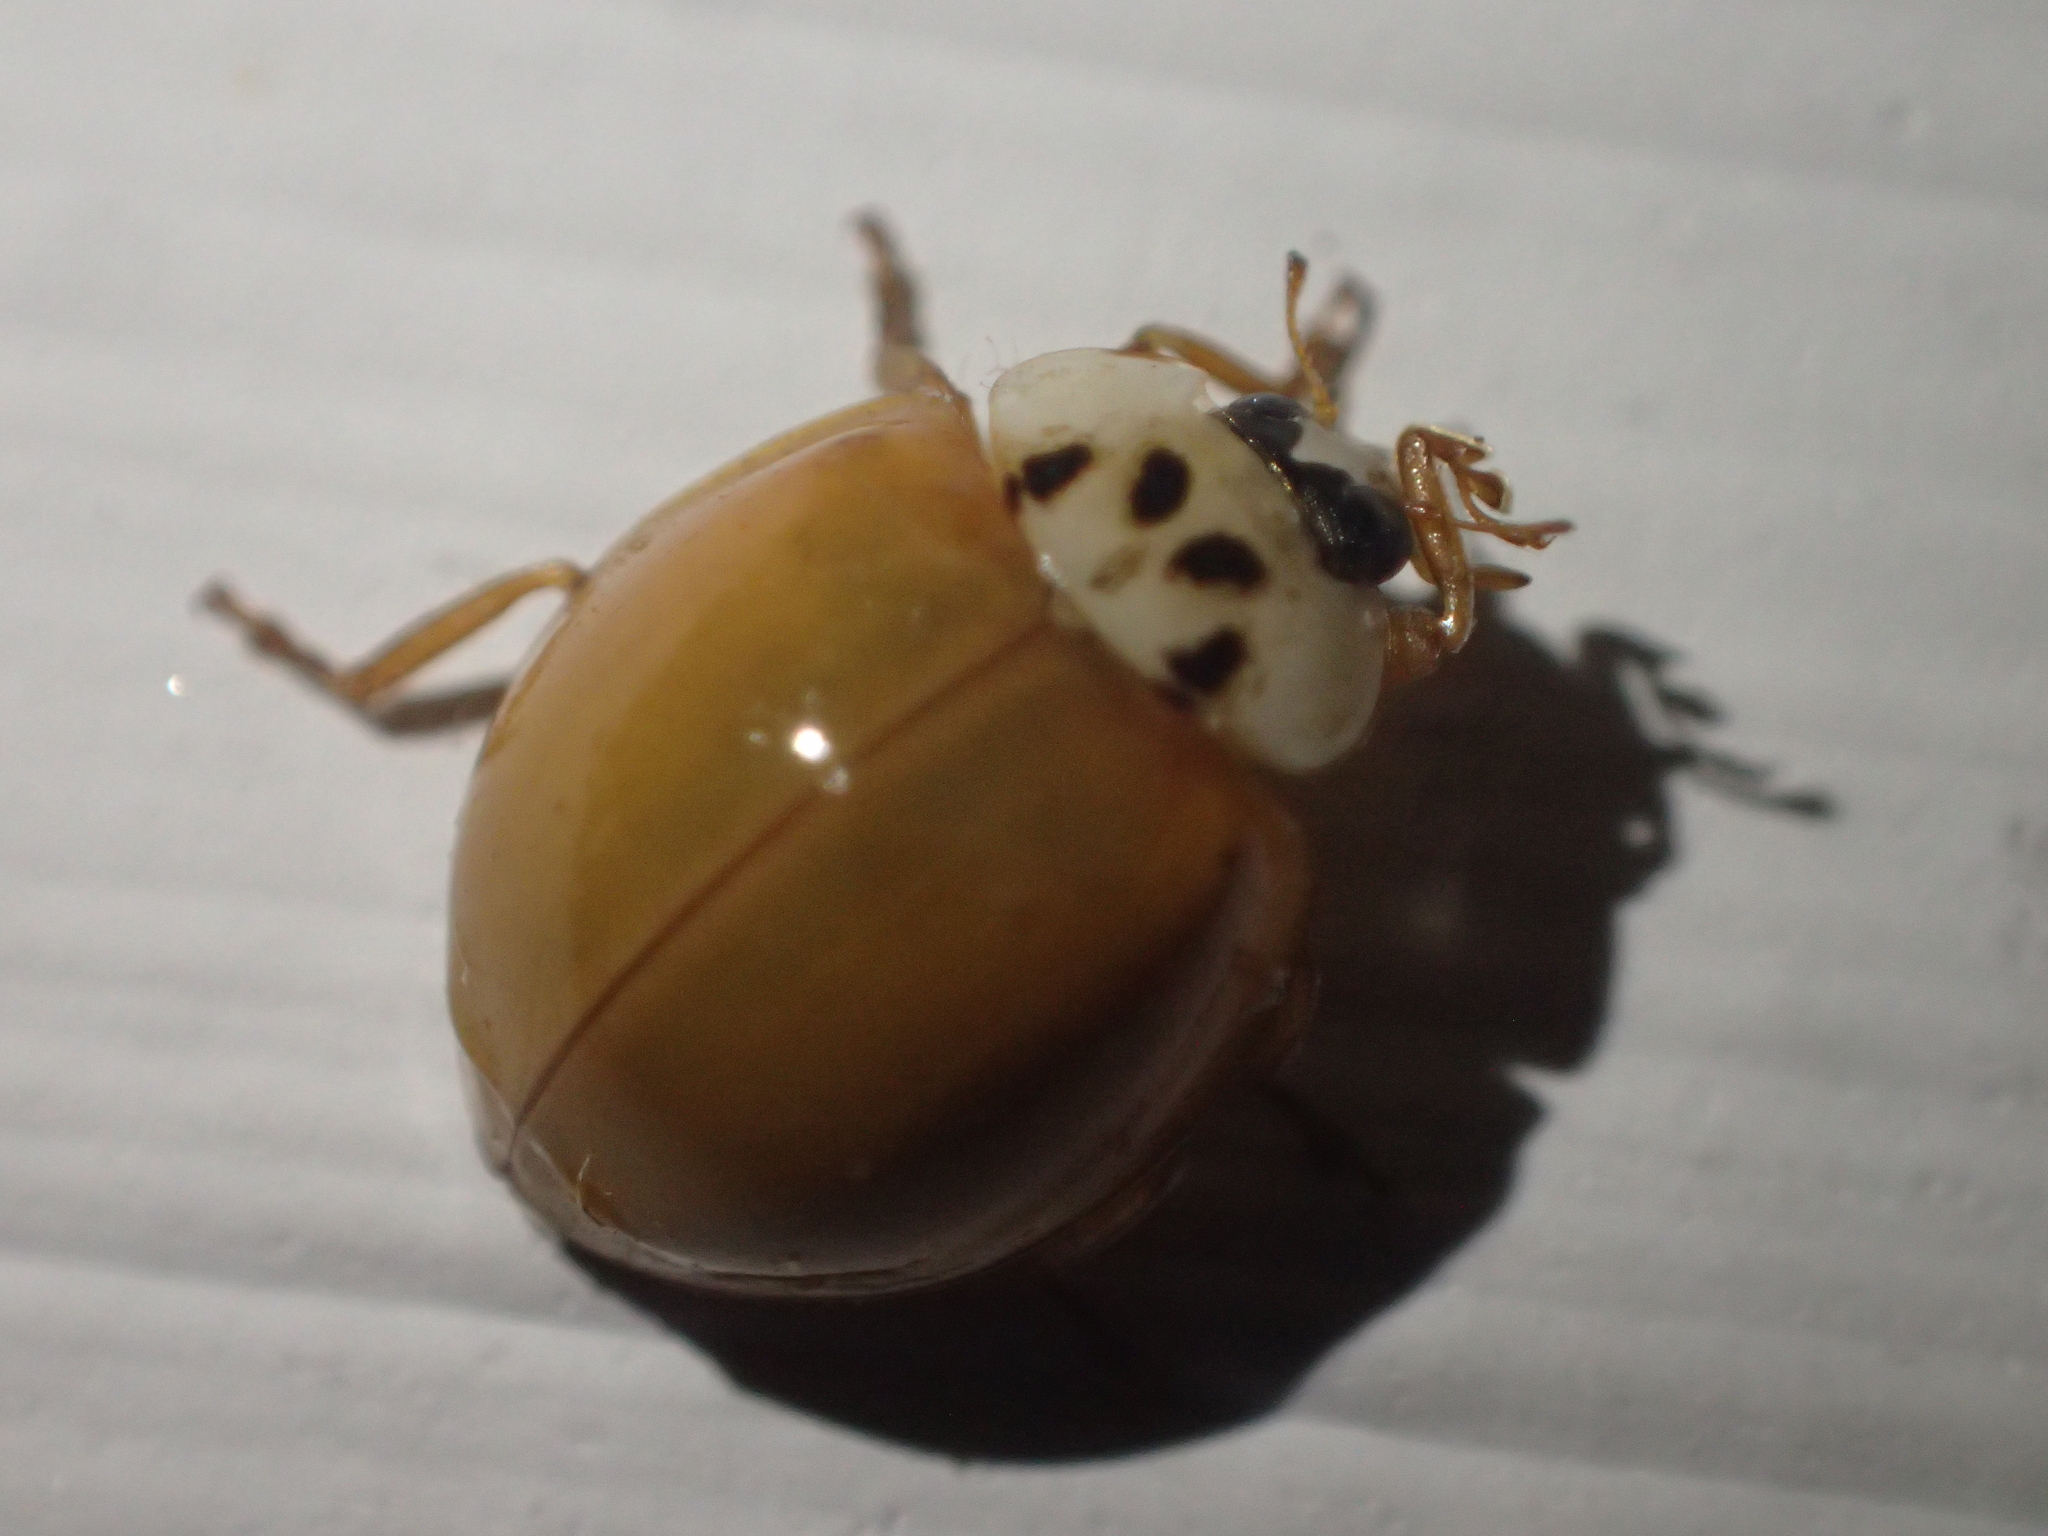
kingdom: Animalia
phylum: Arthropoda
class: Insecta
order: Coleoptera
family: Coccinellidae
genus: Harmonia
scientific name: Harmonia axyridis
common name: Harlequin ladybird
